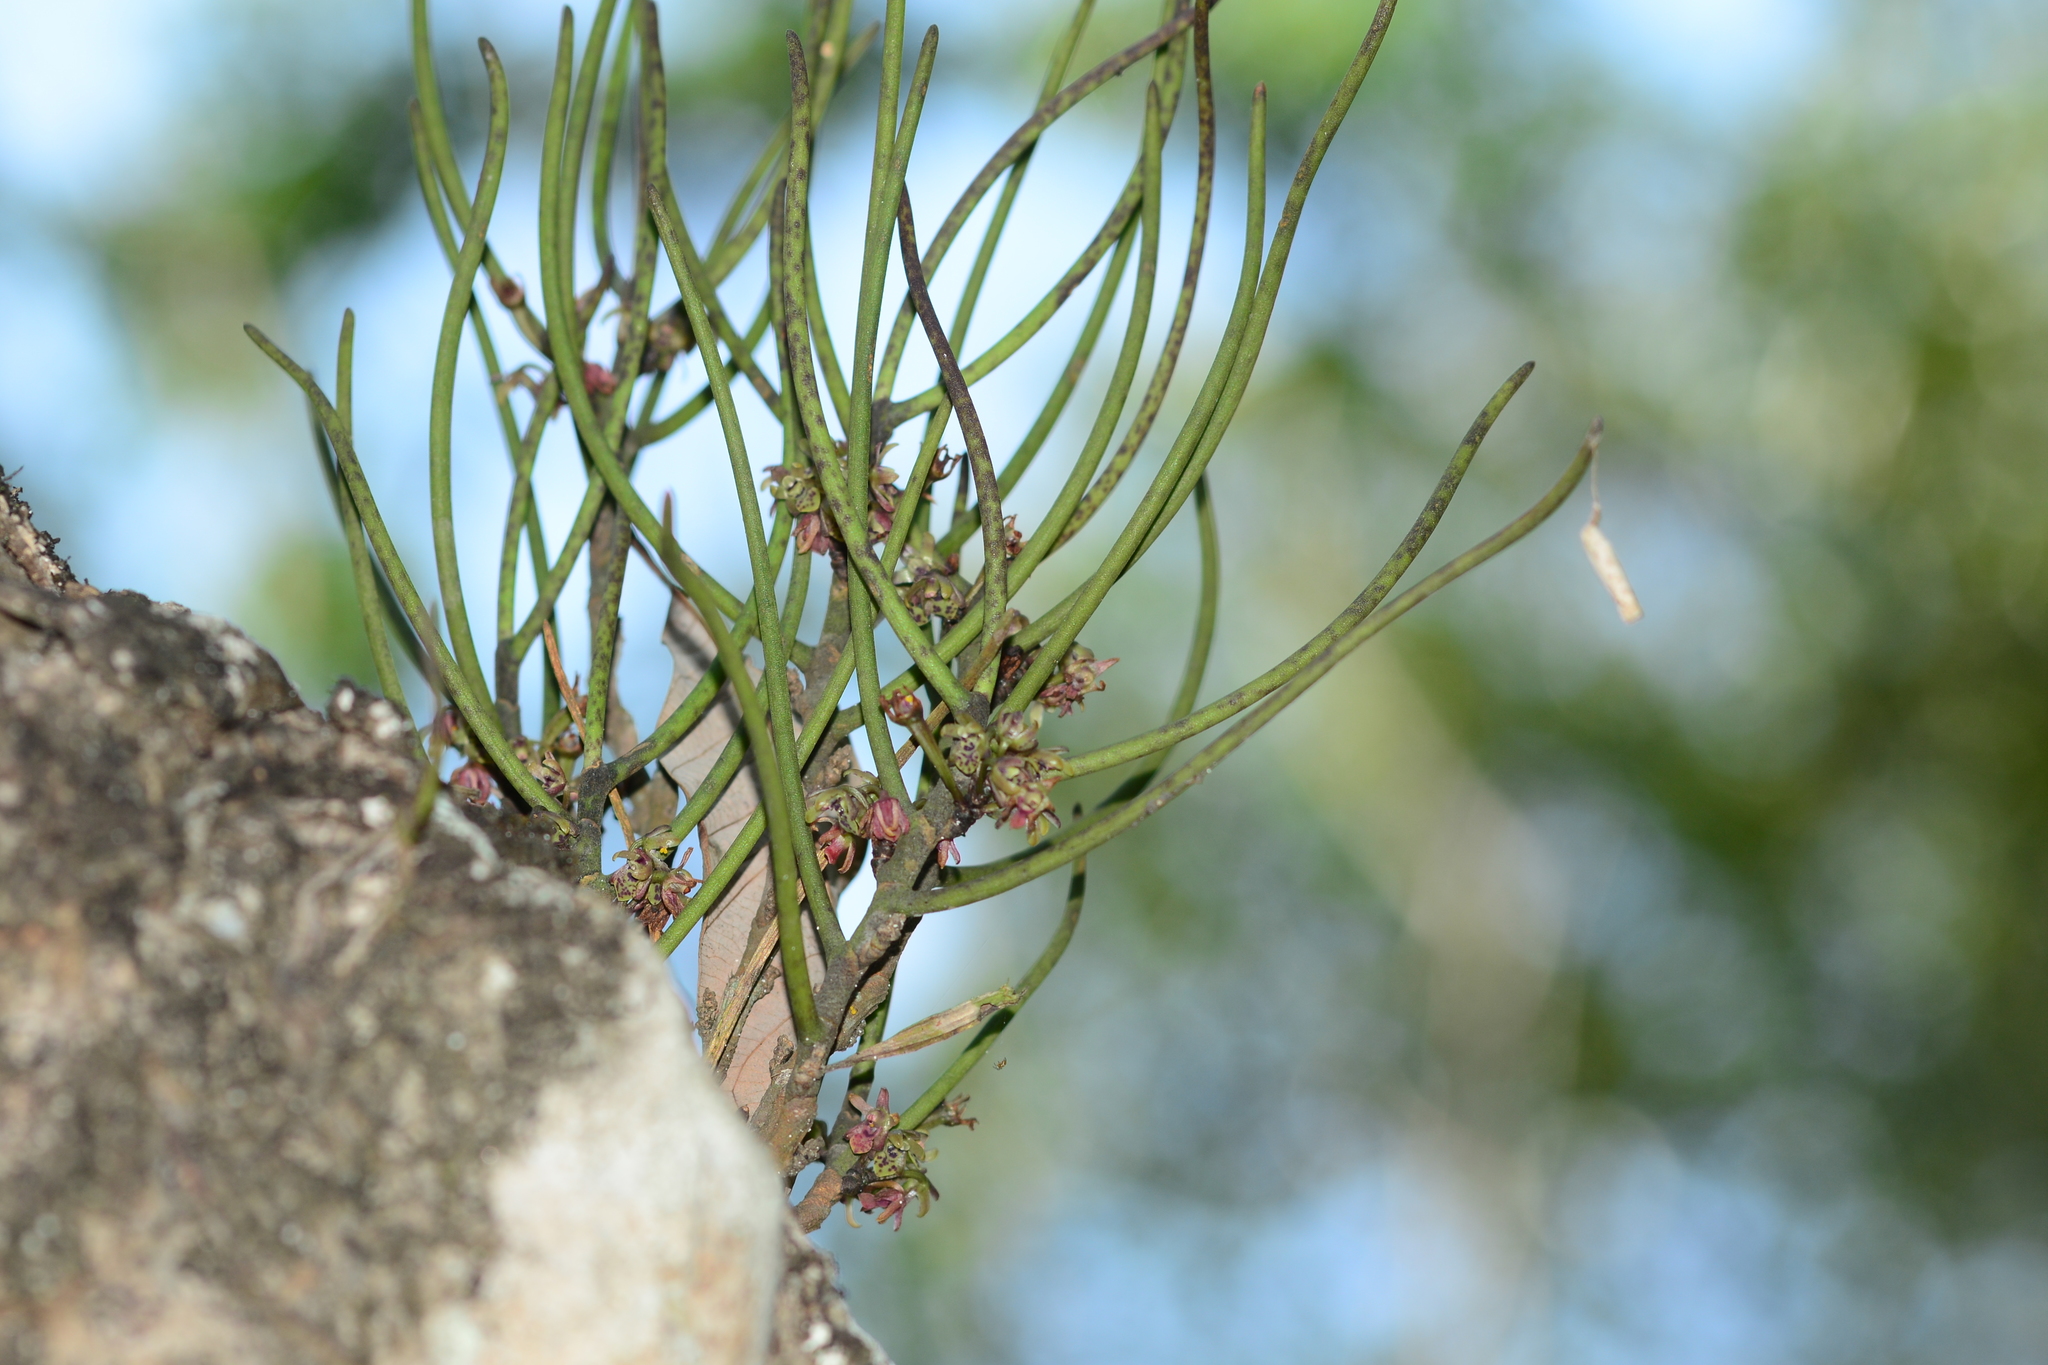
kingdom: Plantae
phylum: Tracheophyta
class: Liliopsida
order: Asparagales
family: Orchidaceae
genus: Luisia
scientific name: Luisia tristis
